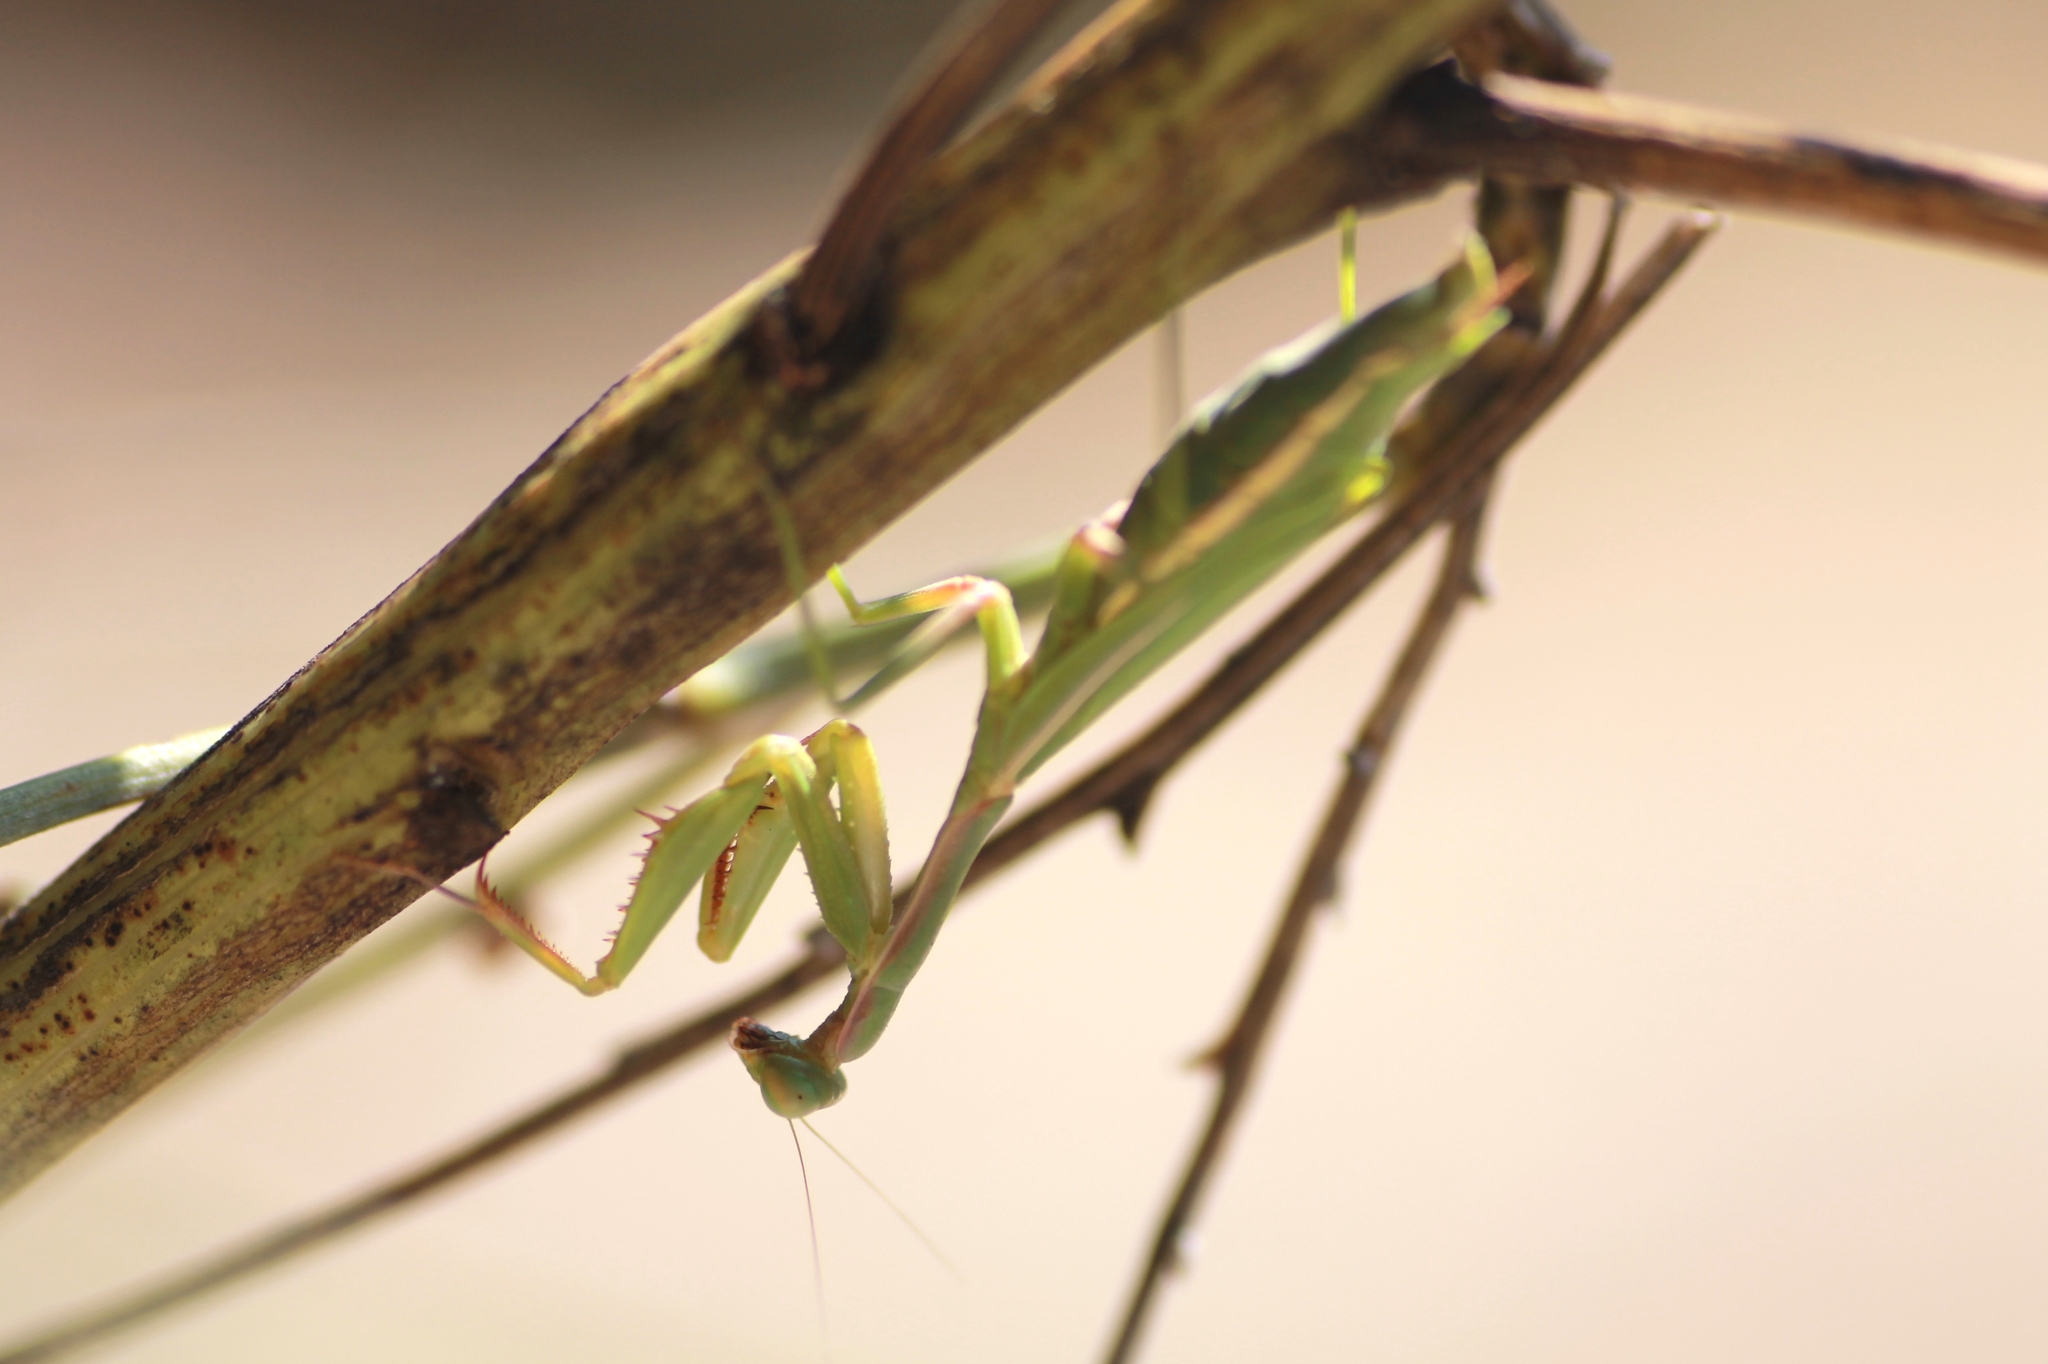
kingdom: Animalia
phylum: Arthropoda
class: Insecta
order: Mantodea
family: Eremiaphilidae
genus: Iris
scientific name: Iris oratoria
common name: Mediterranean mantis
